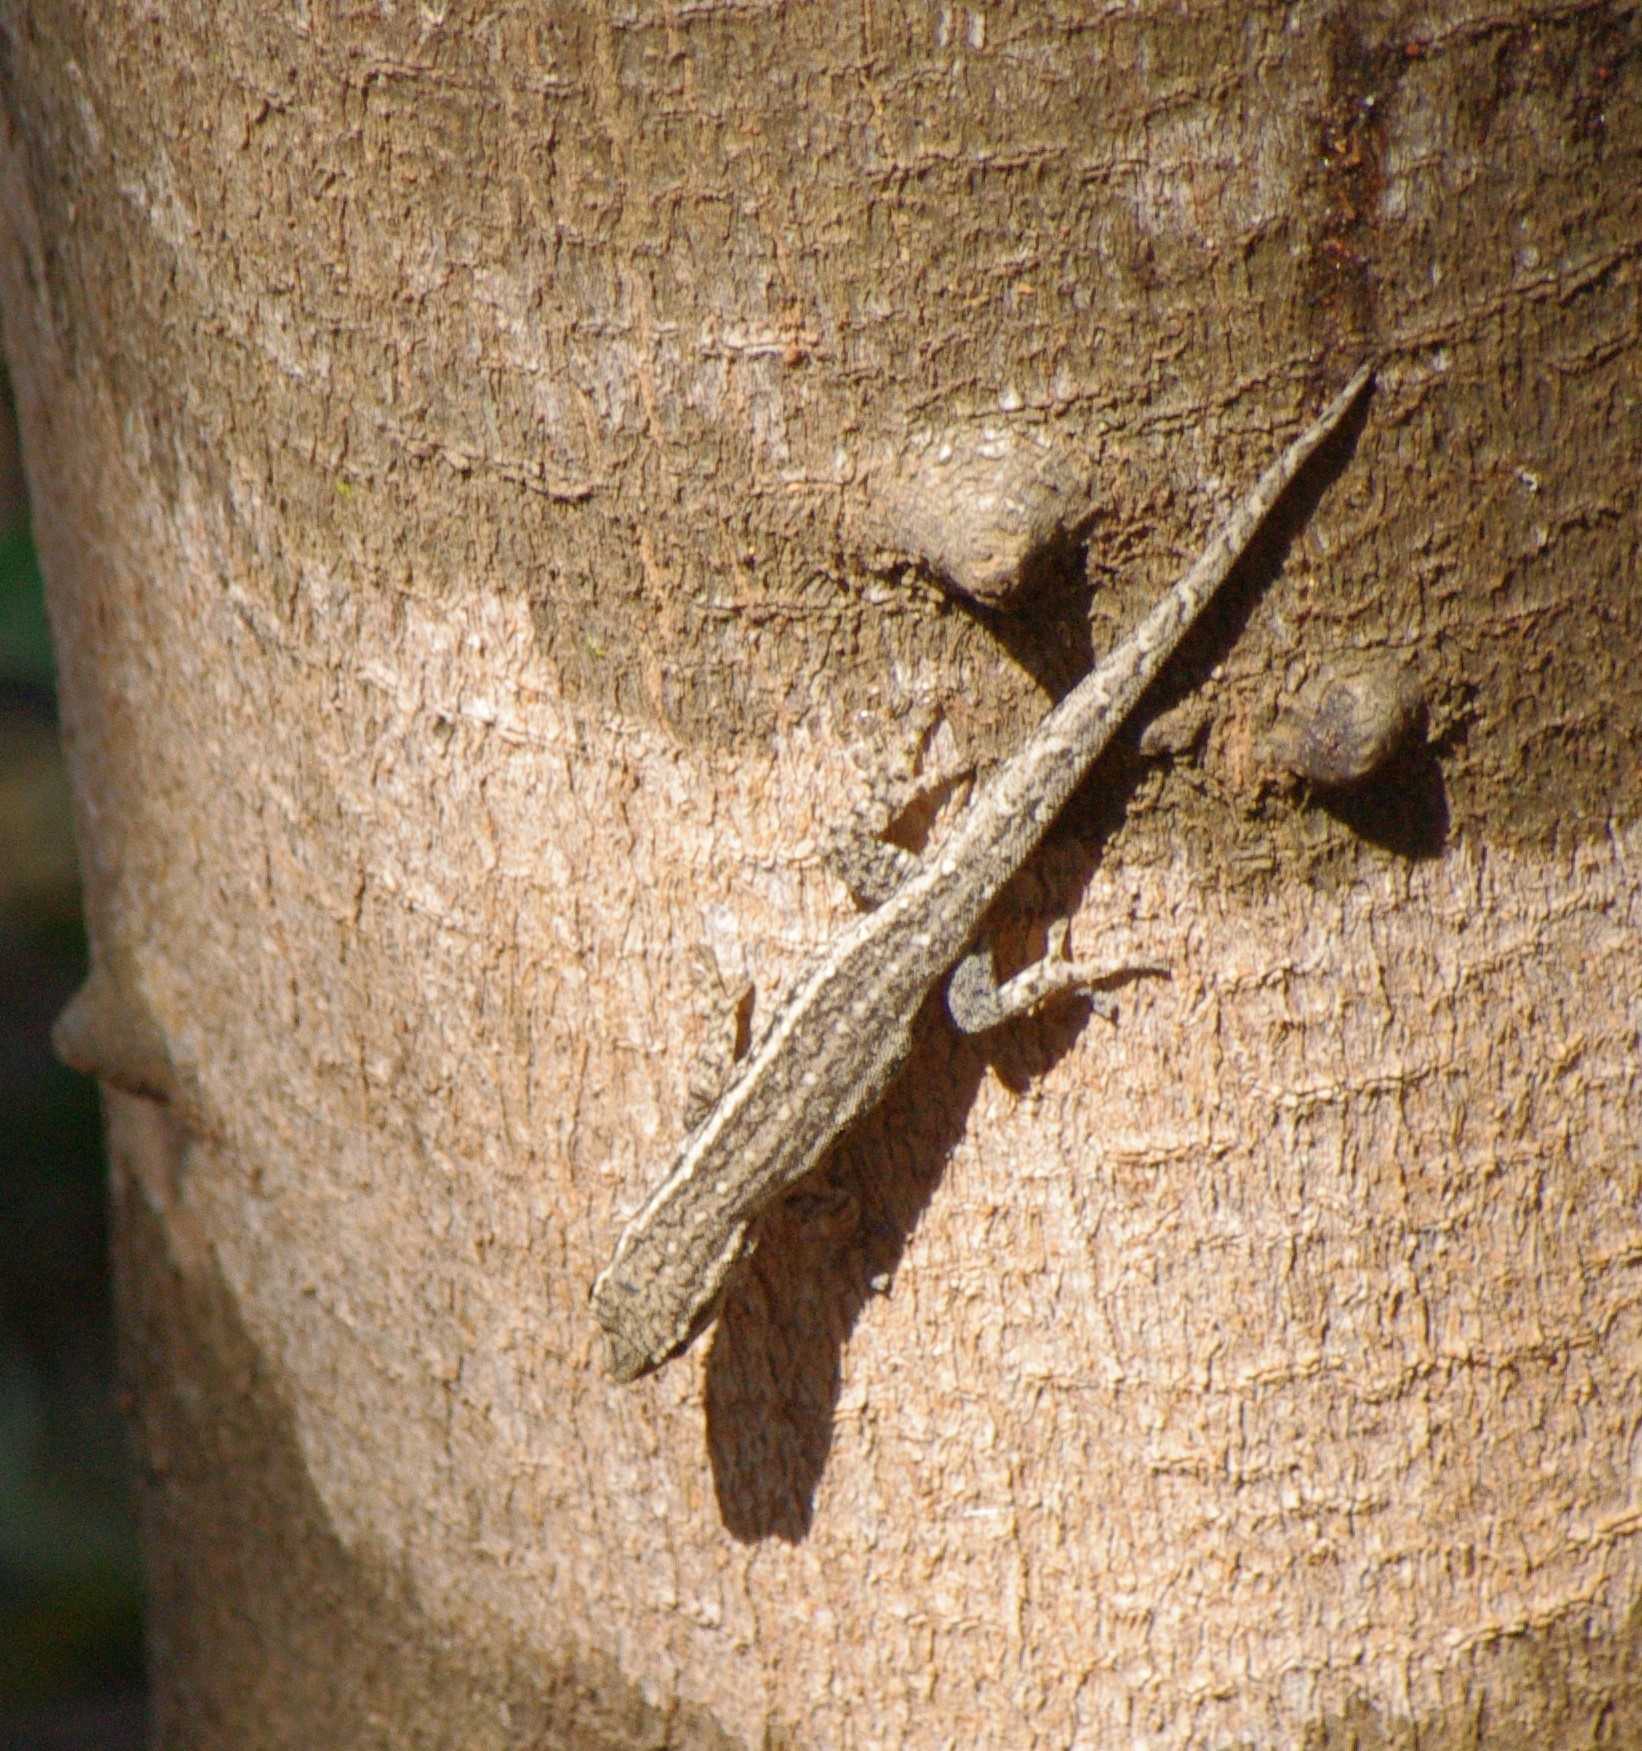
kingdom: Animalia
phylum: Chordata
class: Squamata
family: Gekkonidae
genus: Lygodactylus
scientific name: Lygodactylus capensis
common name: Cape dwarf gecko
